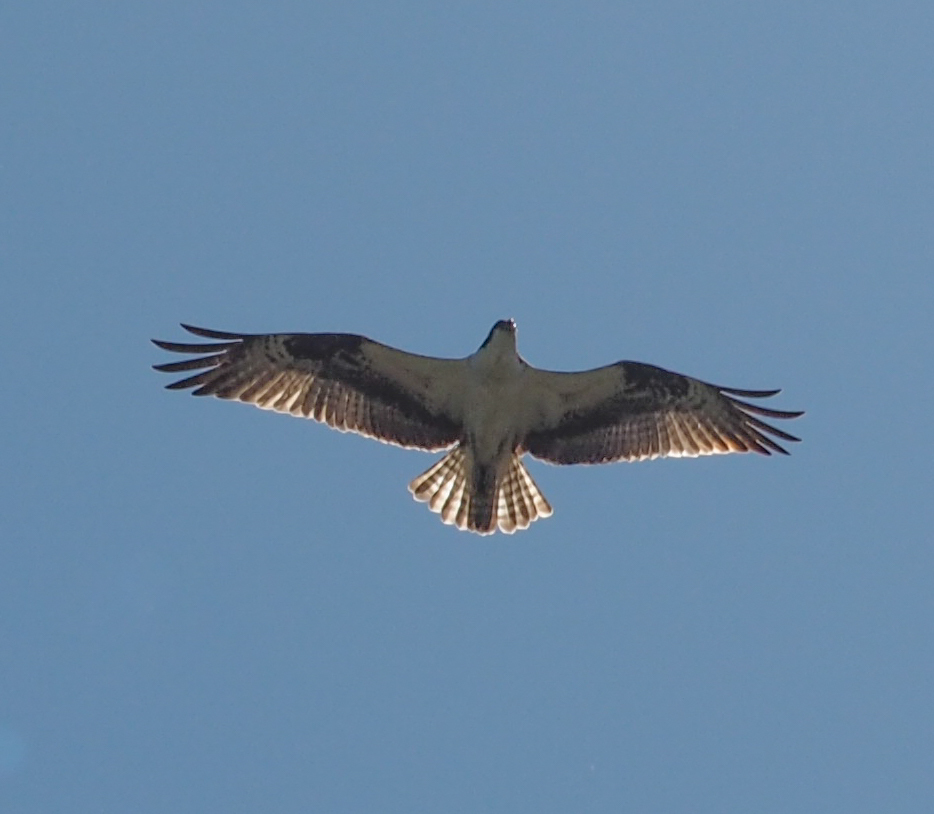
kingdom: Animalia
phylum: Chordata
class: Aves
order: Accipitriformes
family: Pandionidae
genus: Pandion
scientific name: Pandion haliaetus
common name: Osprey
